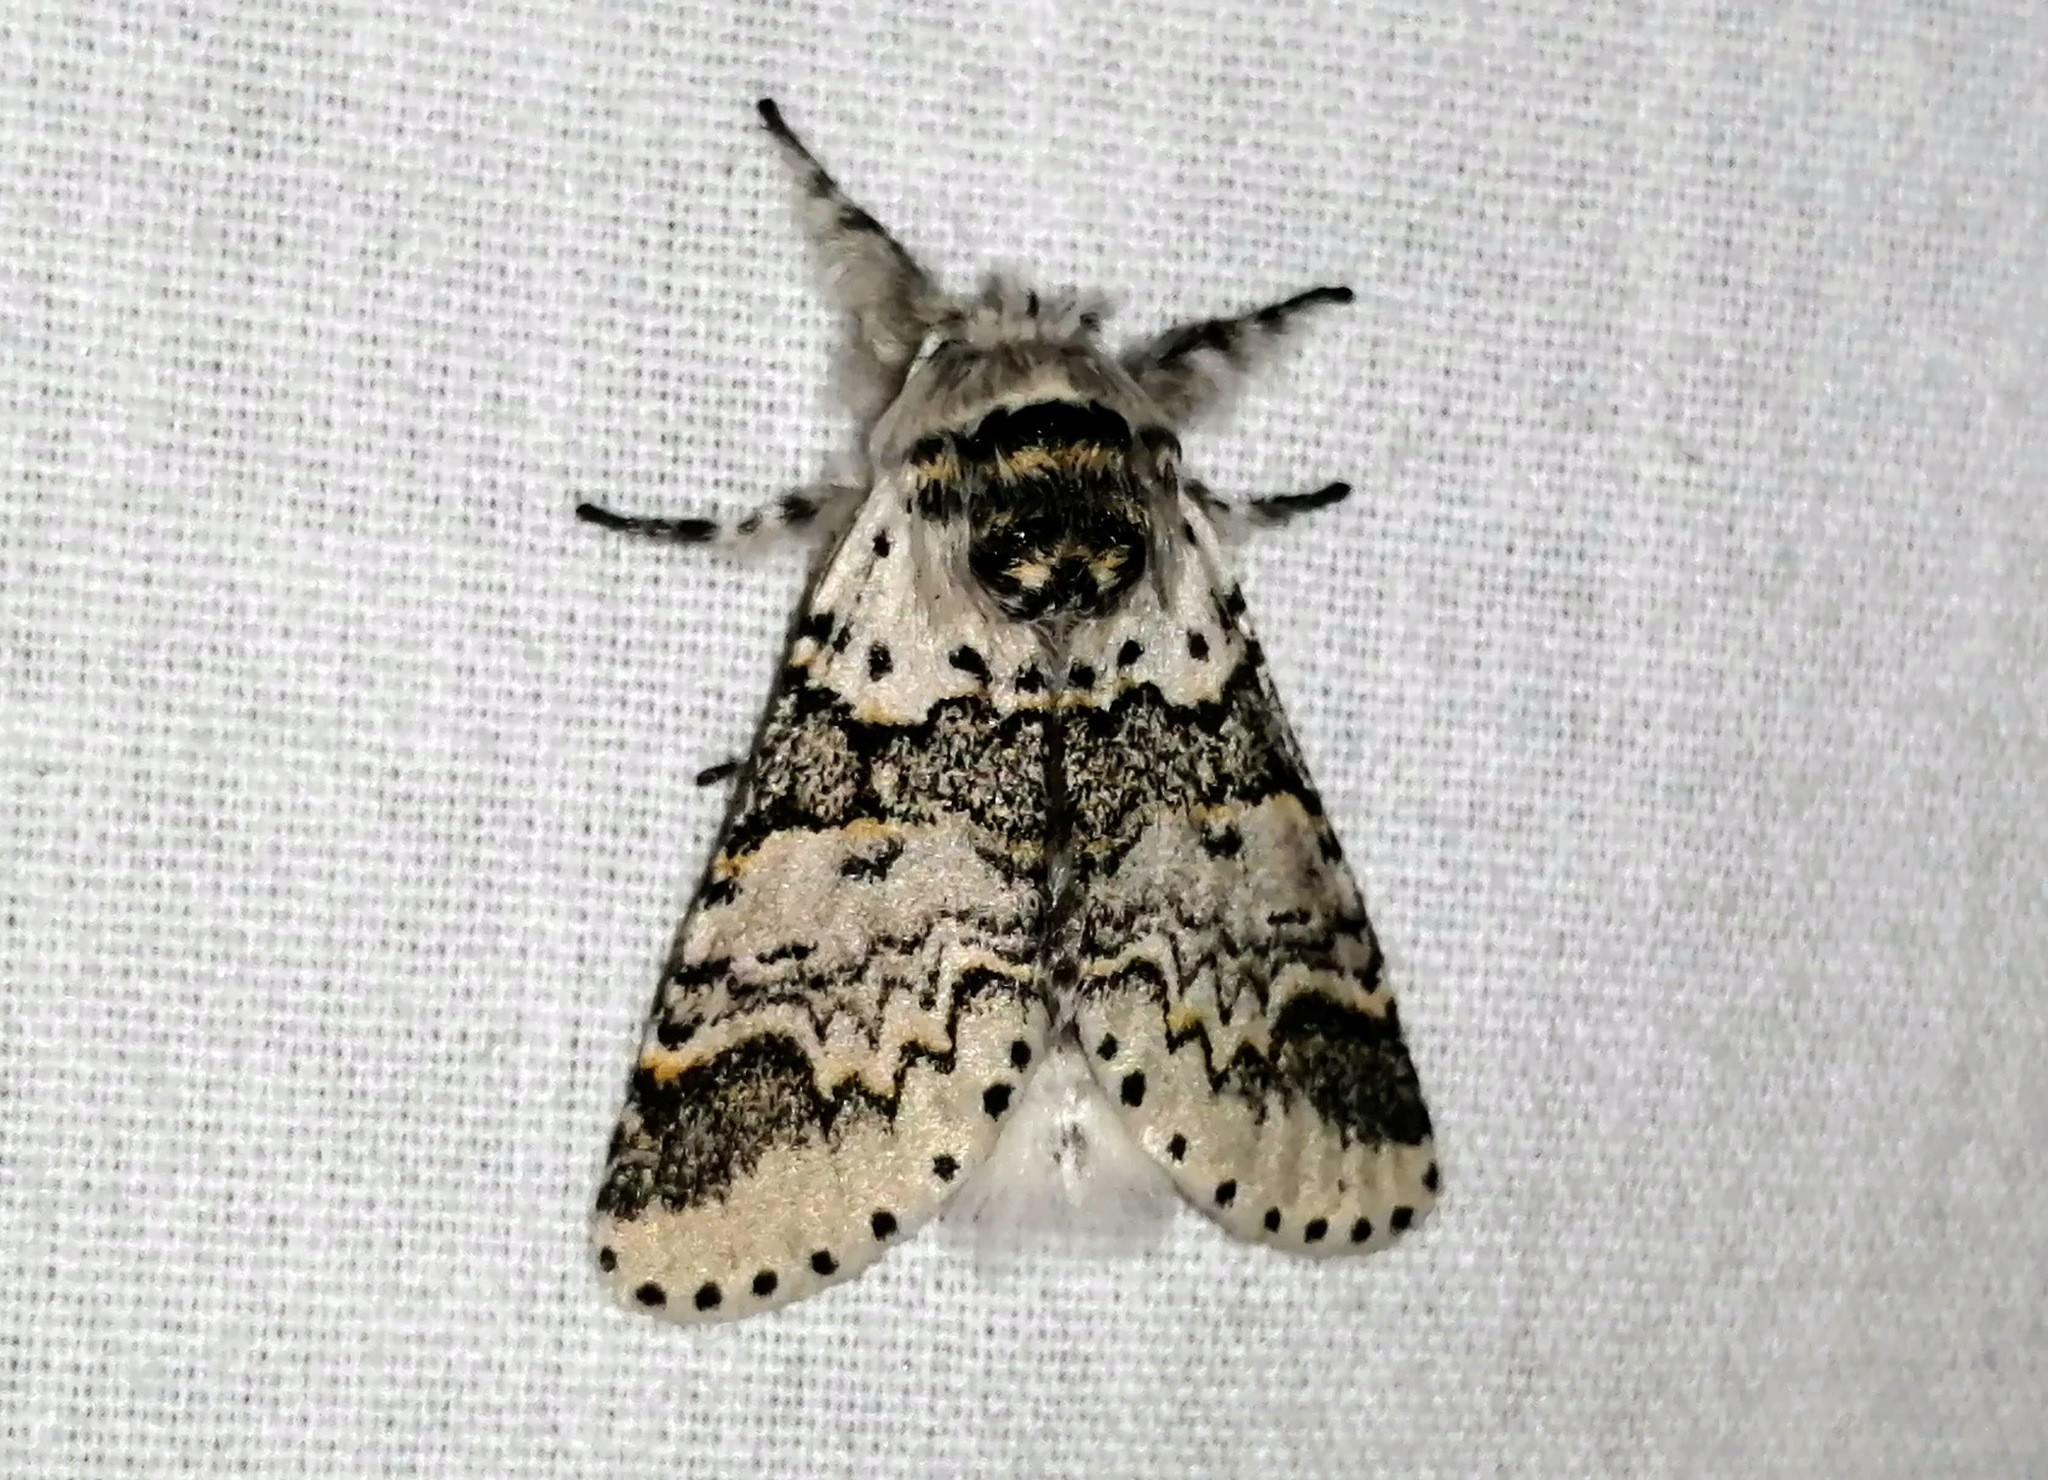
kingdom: Animalia
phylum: Arthropoda
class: Insecta
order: Lepidoptera
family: Notodontidae
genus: Furcula
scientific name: Furcula occidentalis
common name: Western furcula moth
